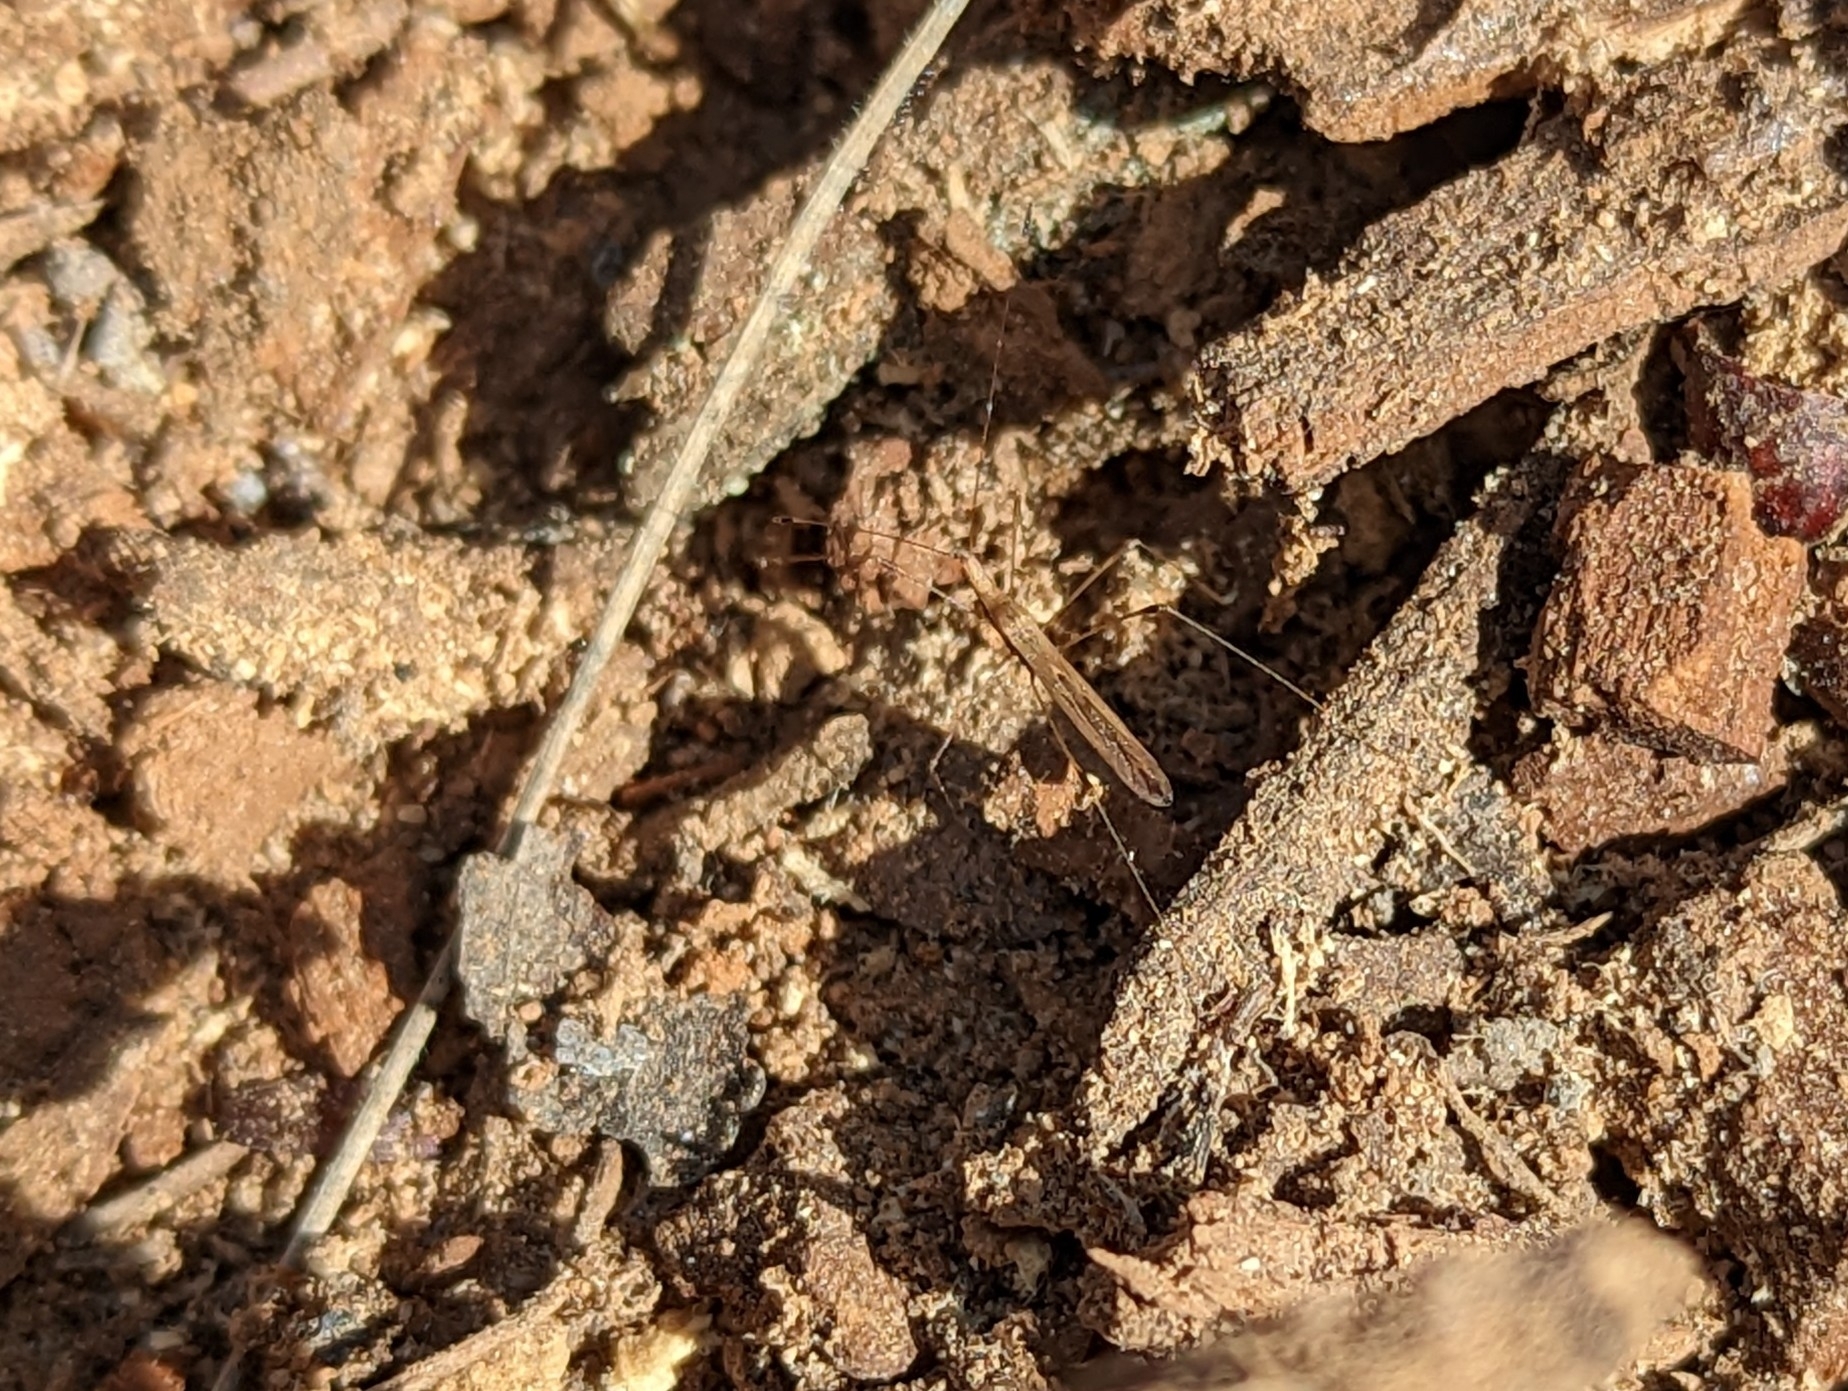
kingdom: Animalia
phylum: Arthropoda
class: Insecta
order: Hemiptera
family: Berytidae
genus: Neoneides
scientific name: Neoneides muticus
